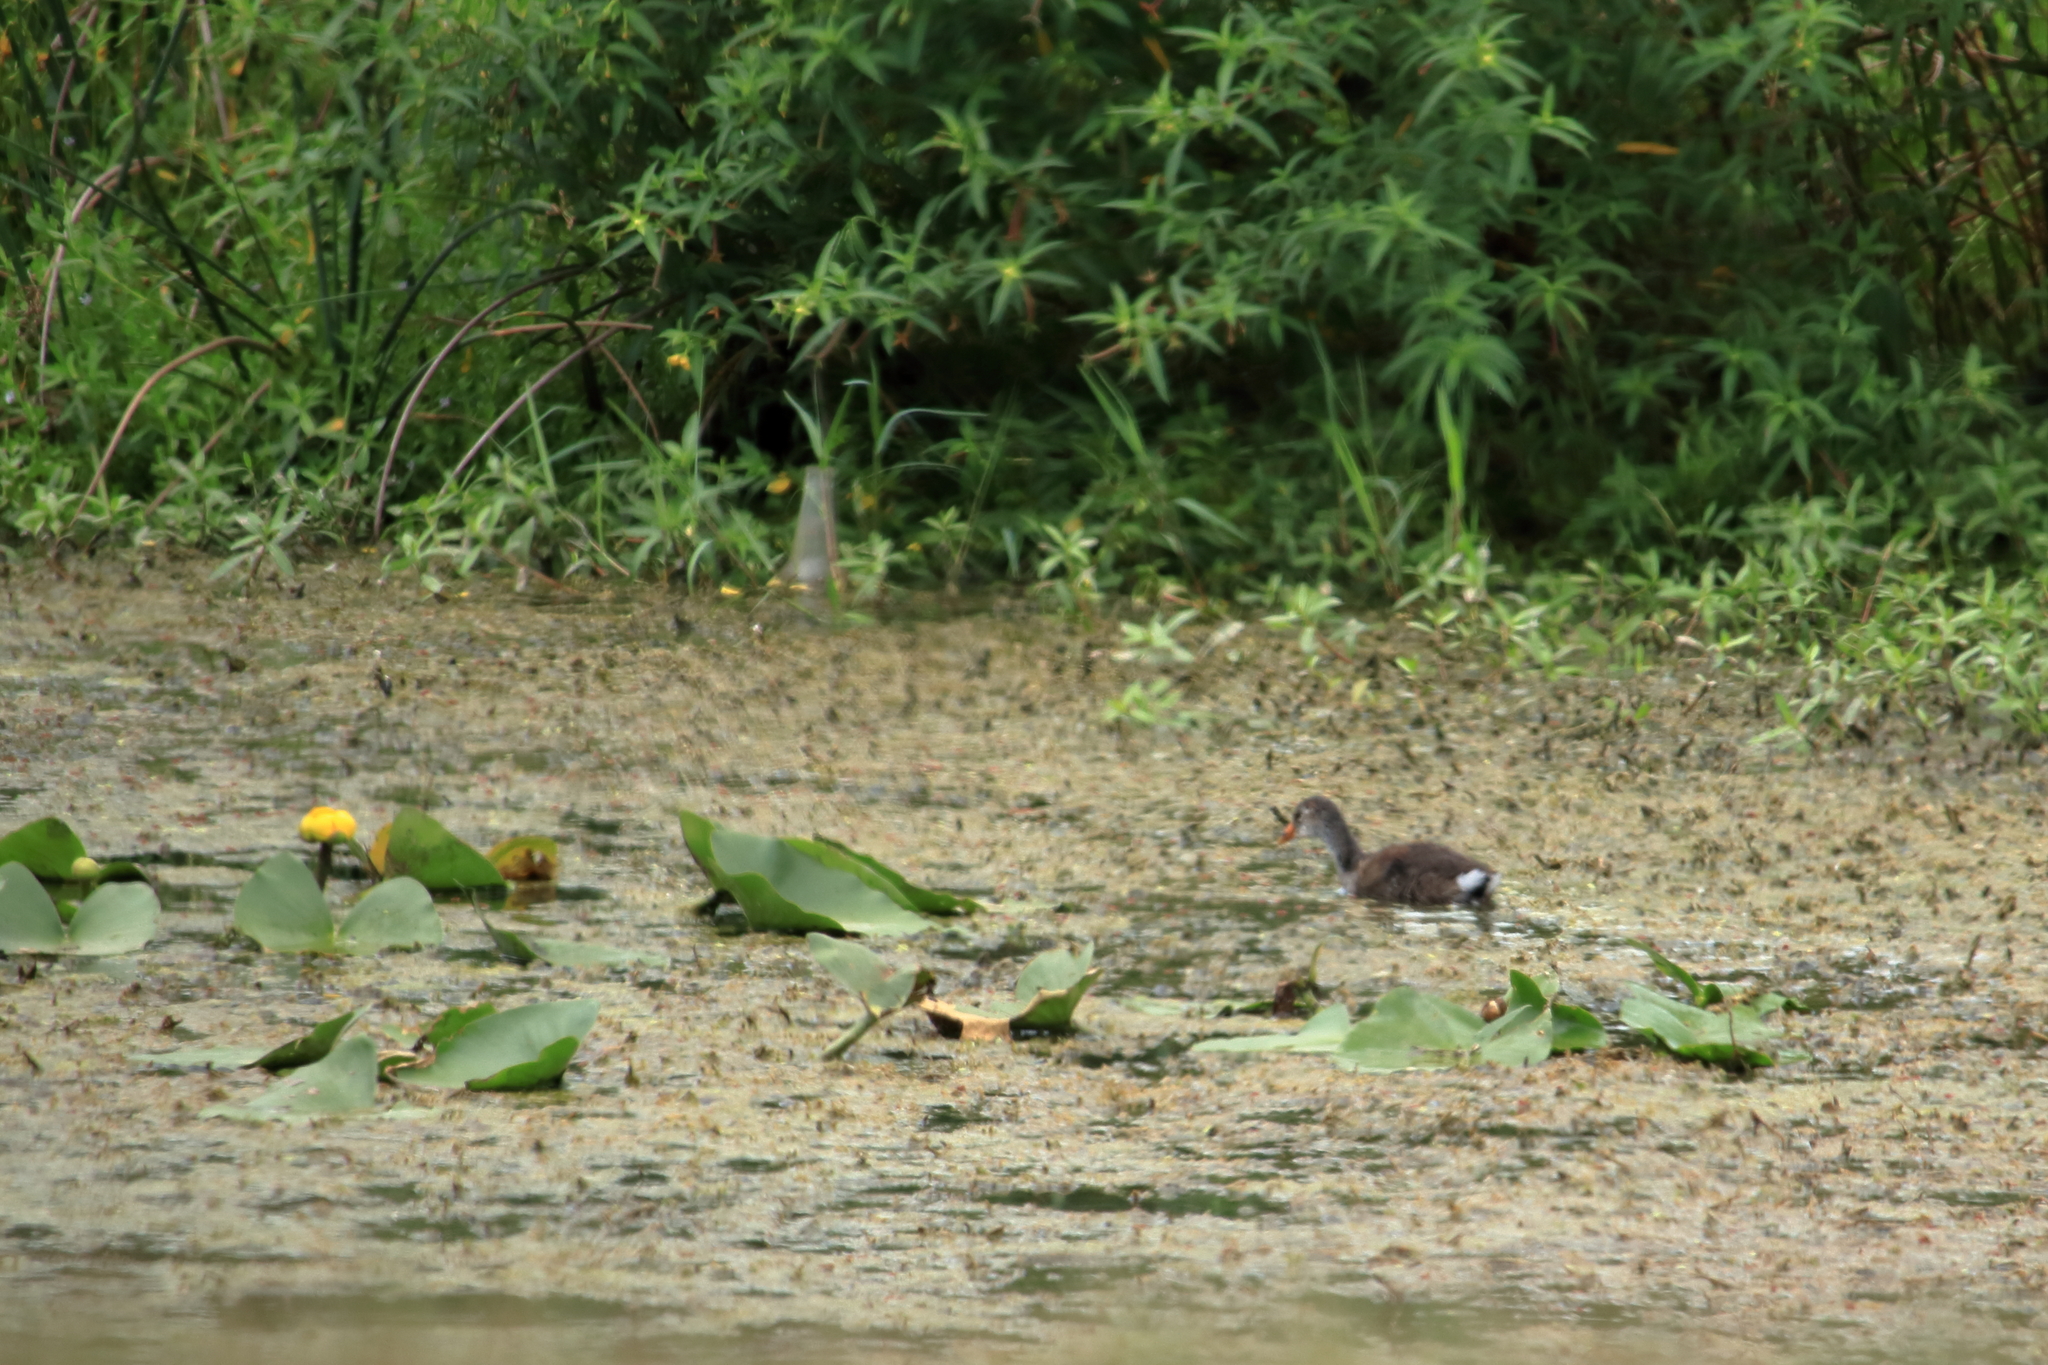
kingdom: Animalia
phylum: Chordata
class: Aves
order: Gruiformes
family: Rallidae
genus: Gallinula
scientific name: Gallinula chloropus
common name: Common moorhen
